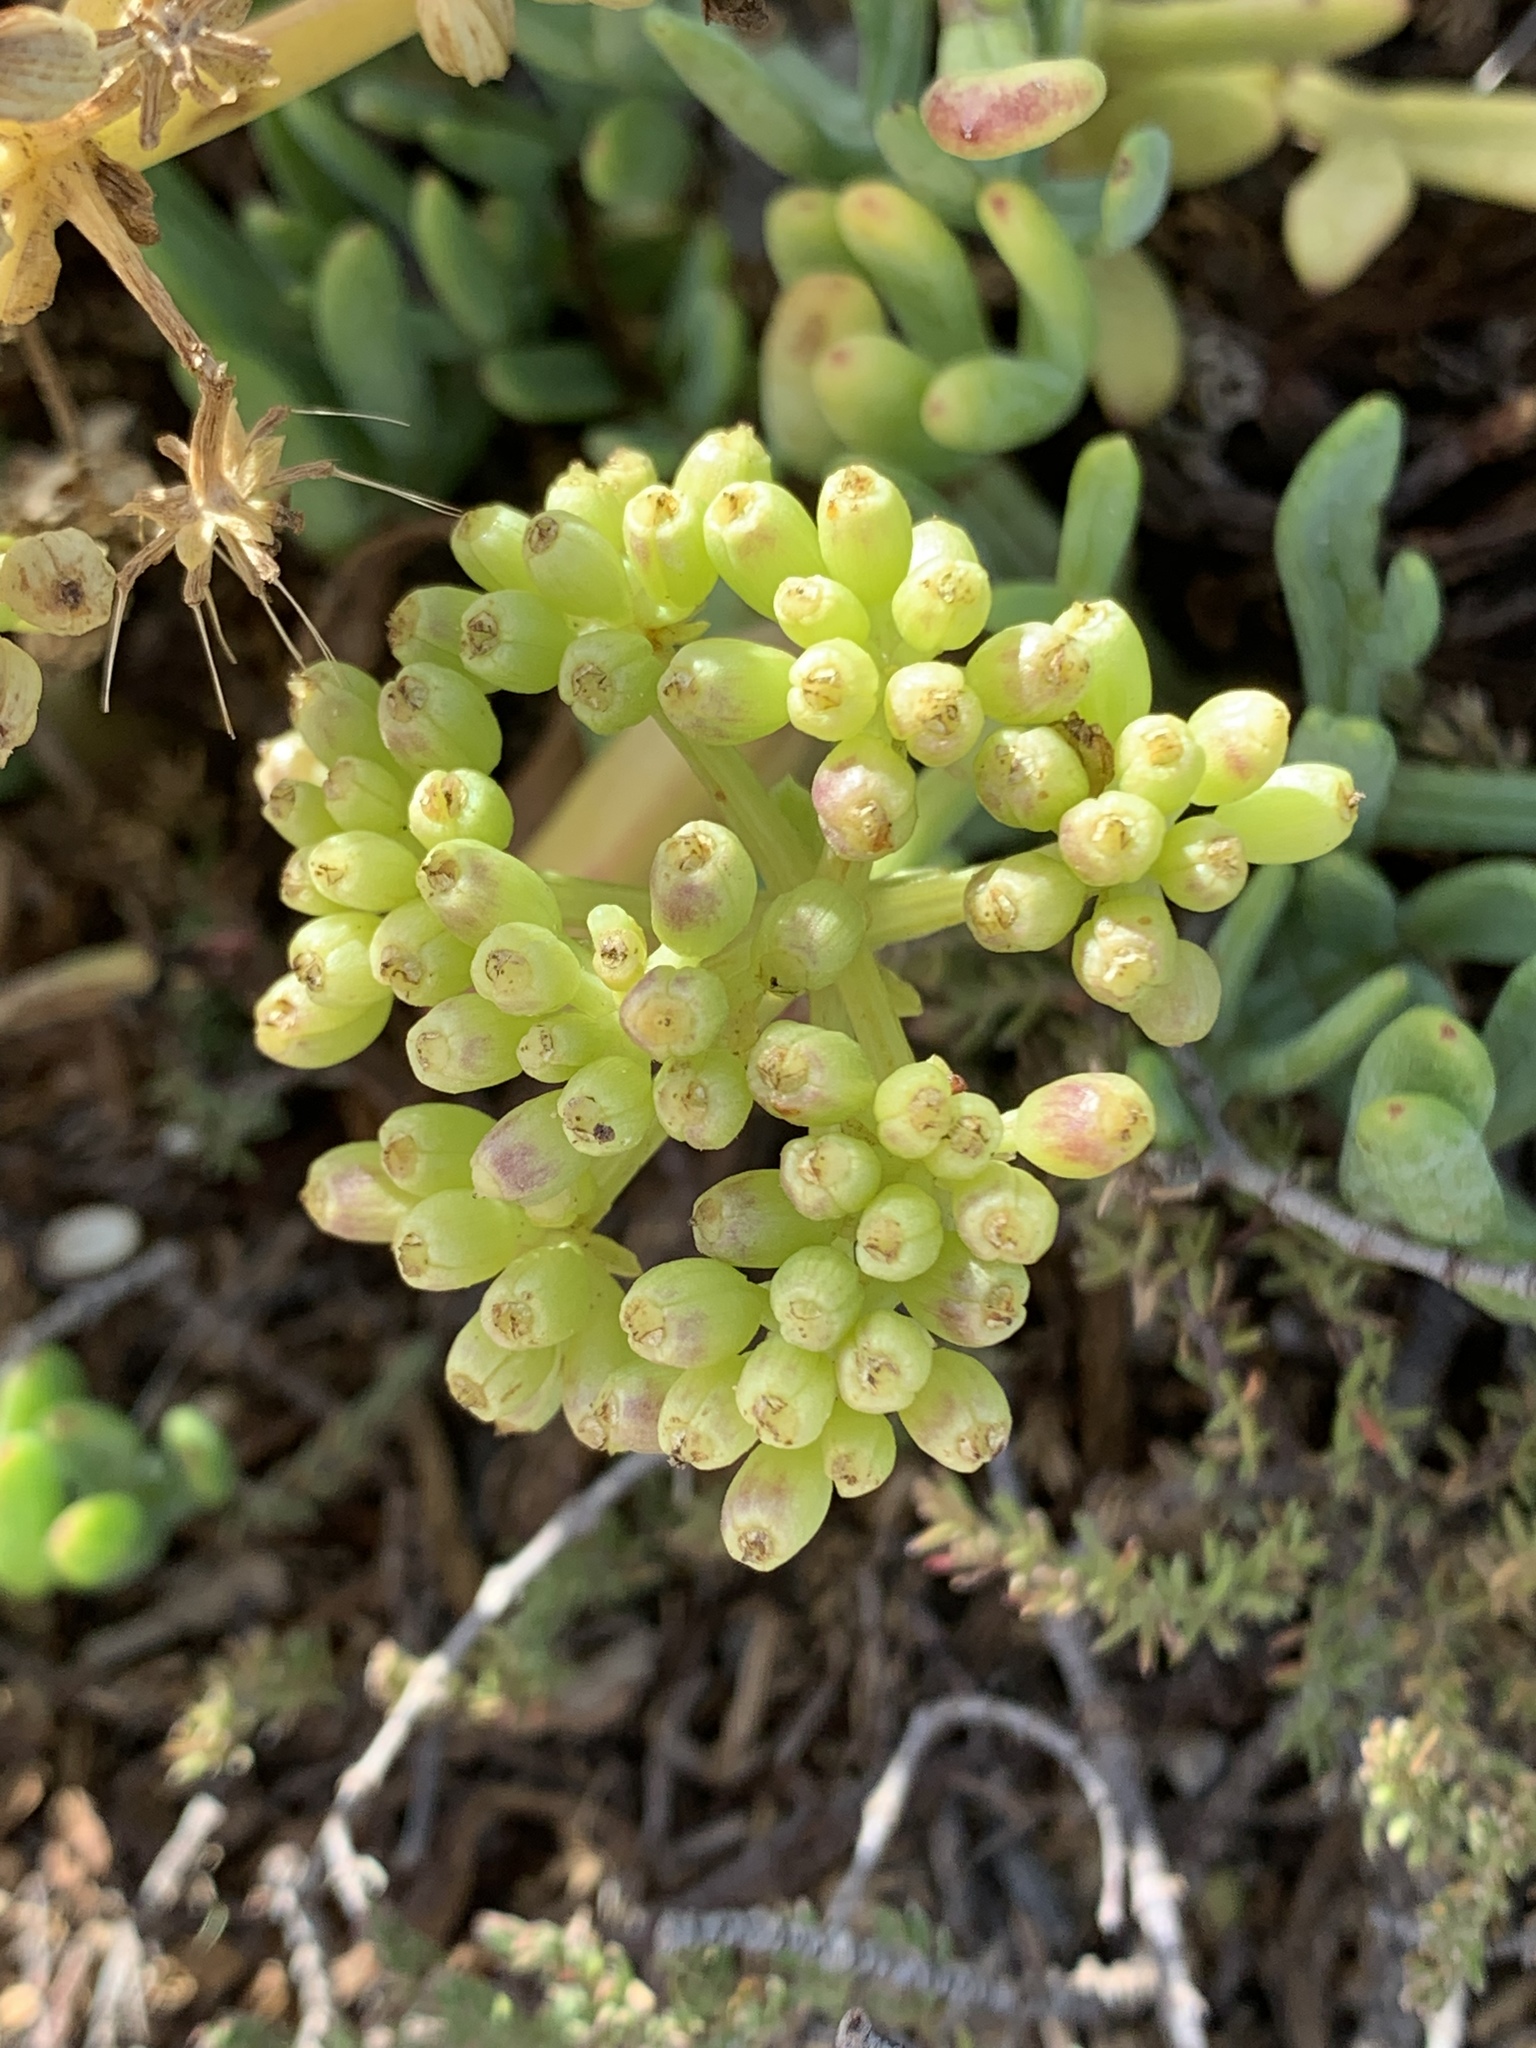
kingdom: Plantae
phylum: Tracheophyta
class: Magnoliopsida
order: Apiales
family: Apiaceae
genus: Crithmum
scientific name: Crithmum maritimum
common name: Rock samphire
